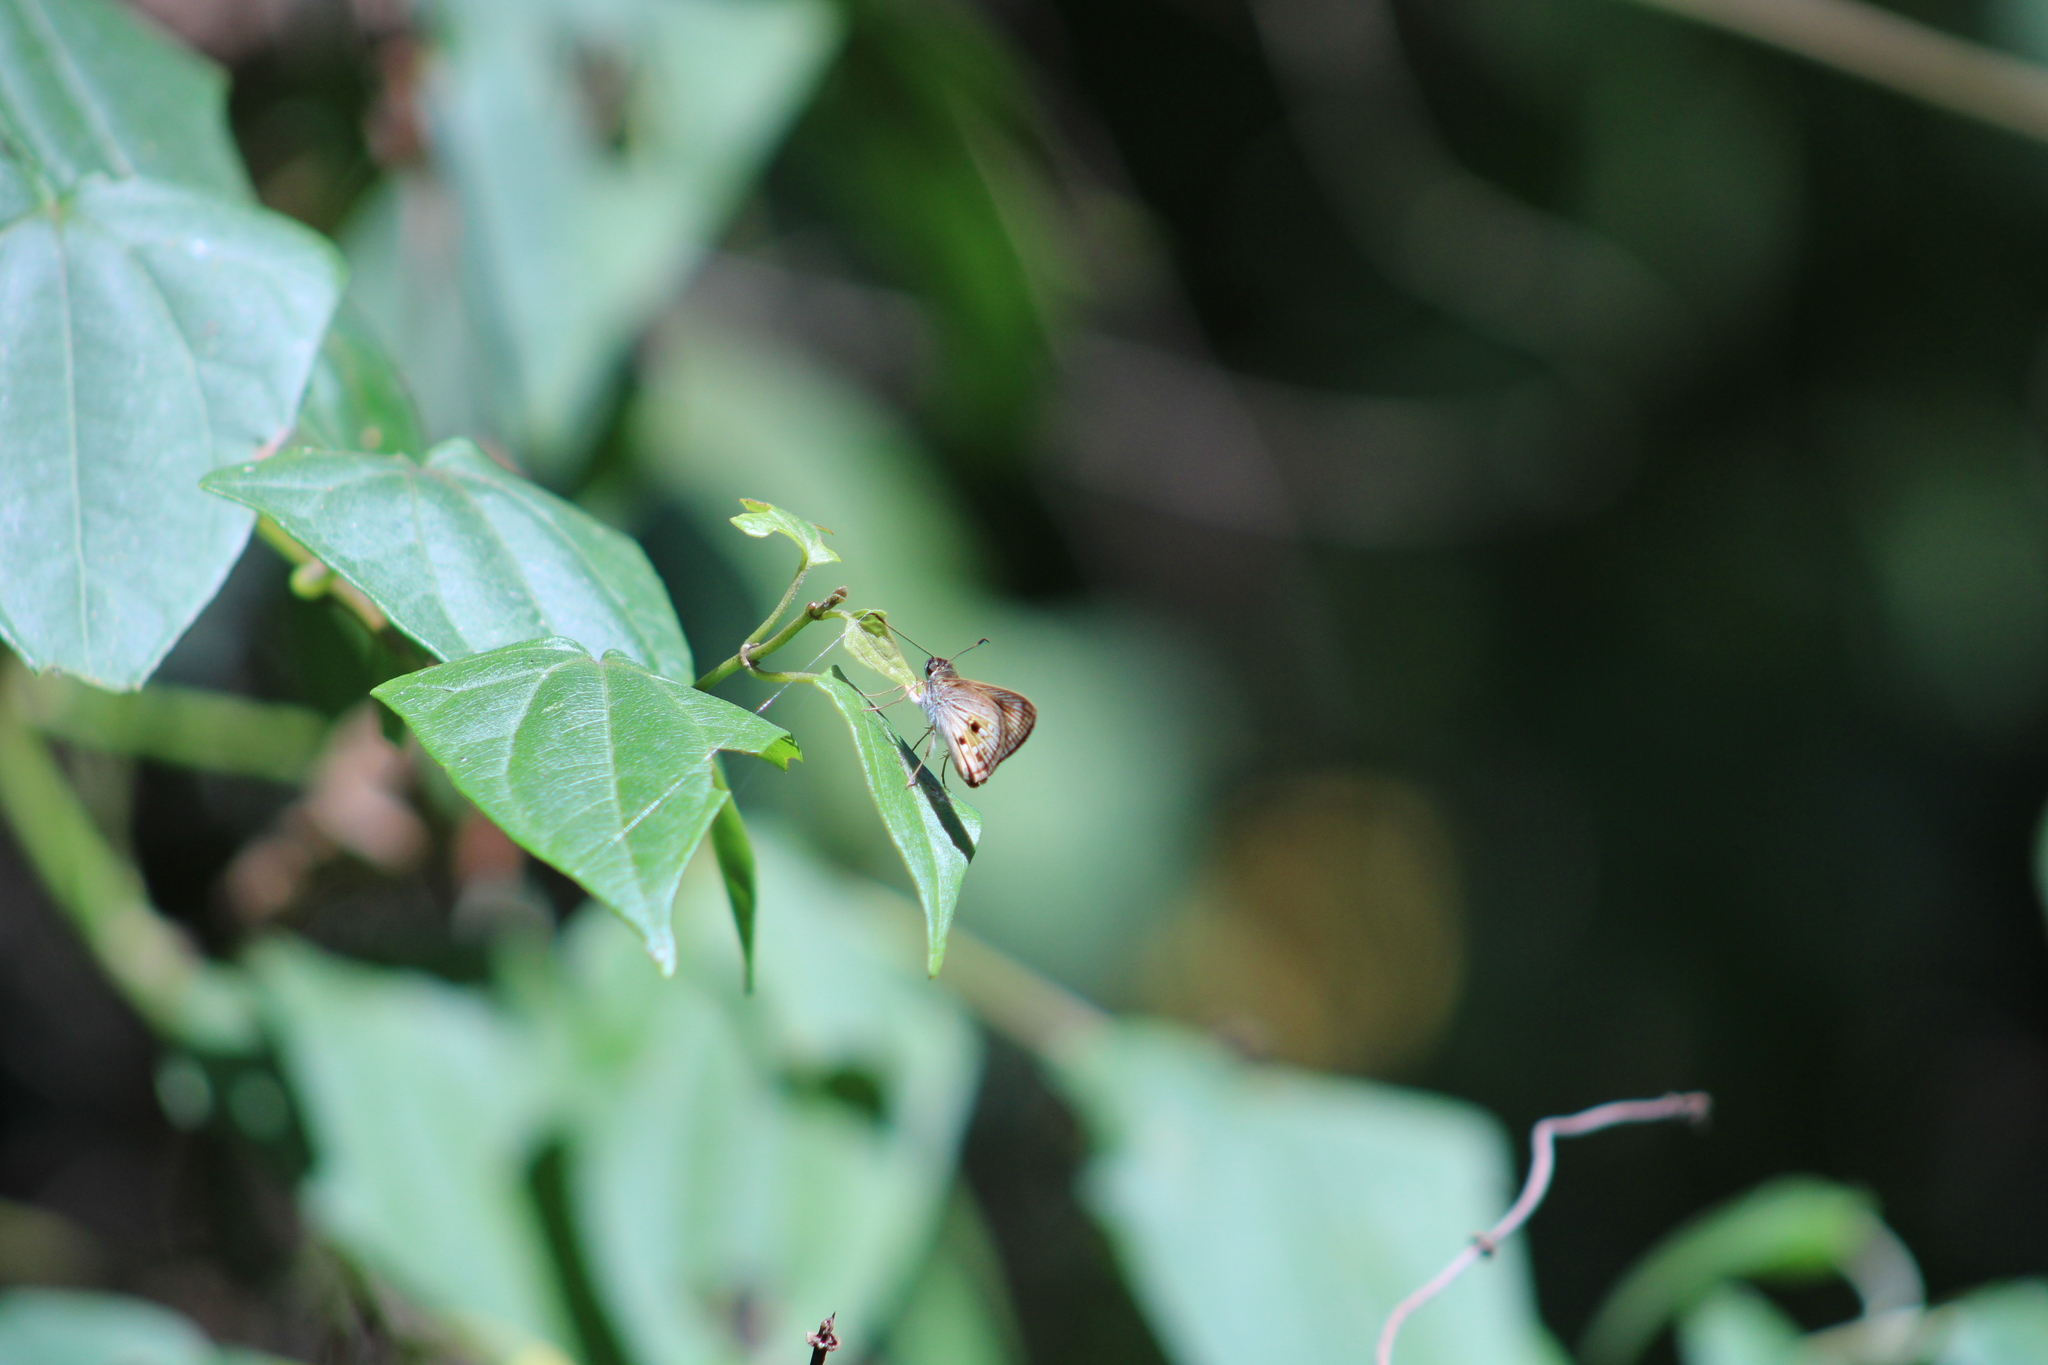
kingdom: Animalia
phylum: Arthropoda
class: Insecta
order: Lepidoptera
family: Hesperiidae
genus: Pheraeus
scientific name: Pheraeus odilia
